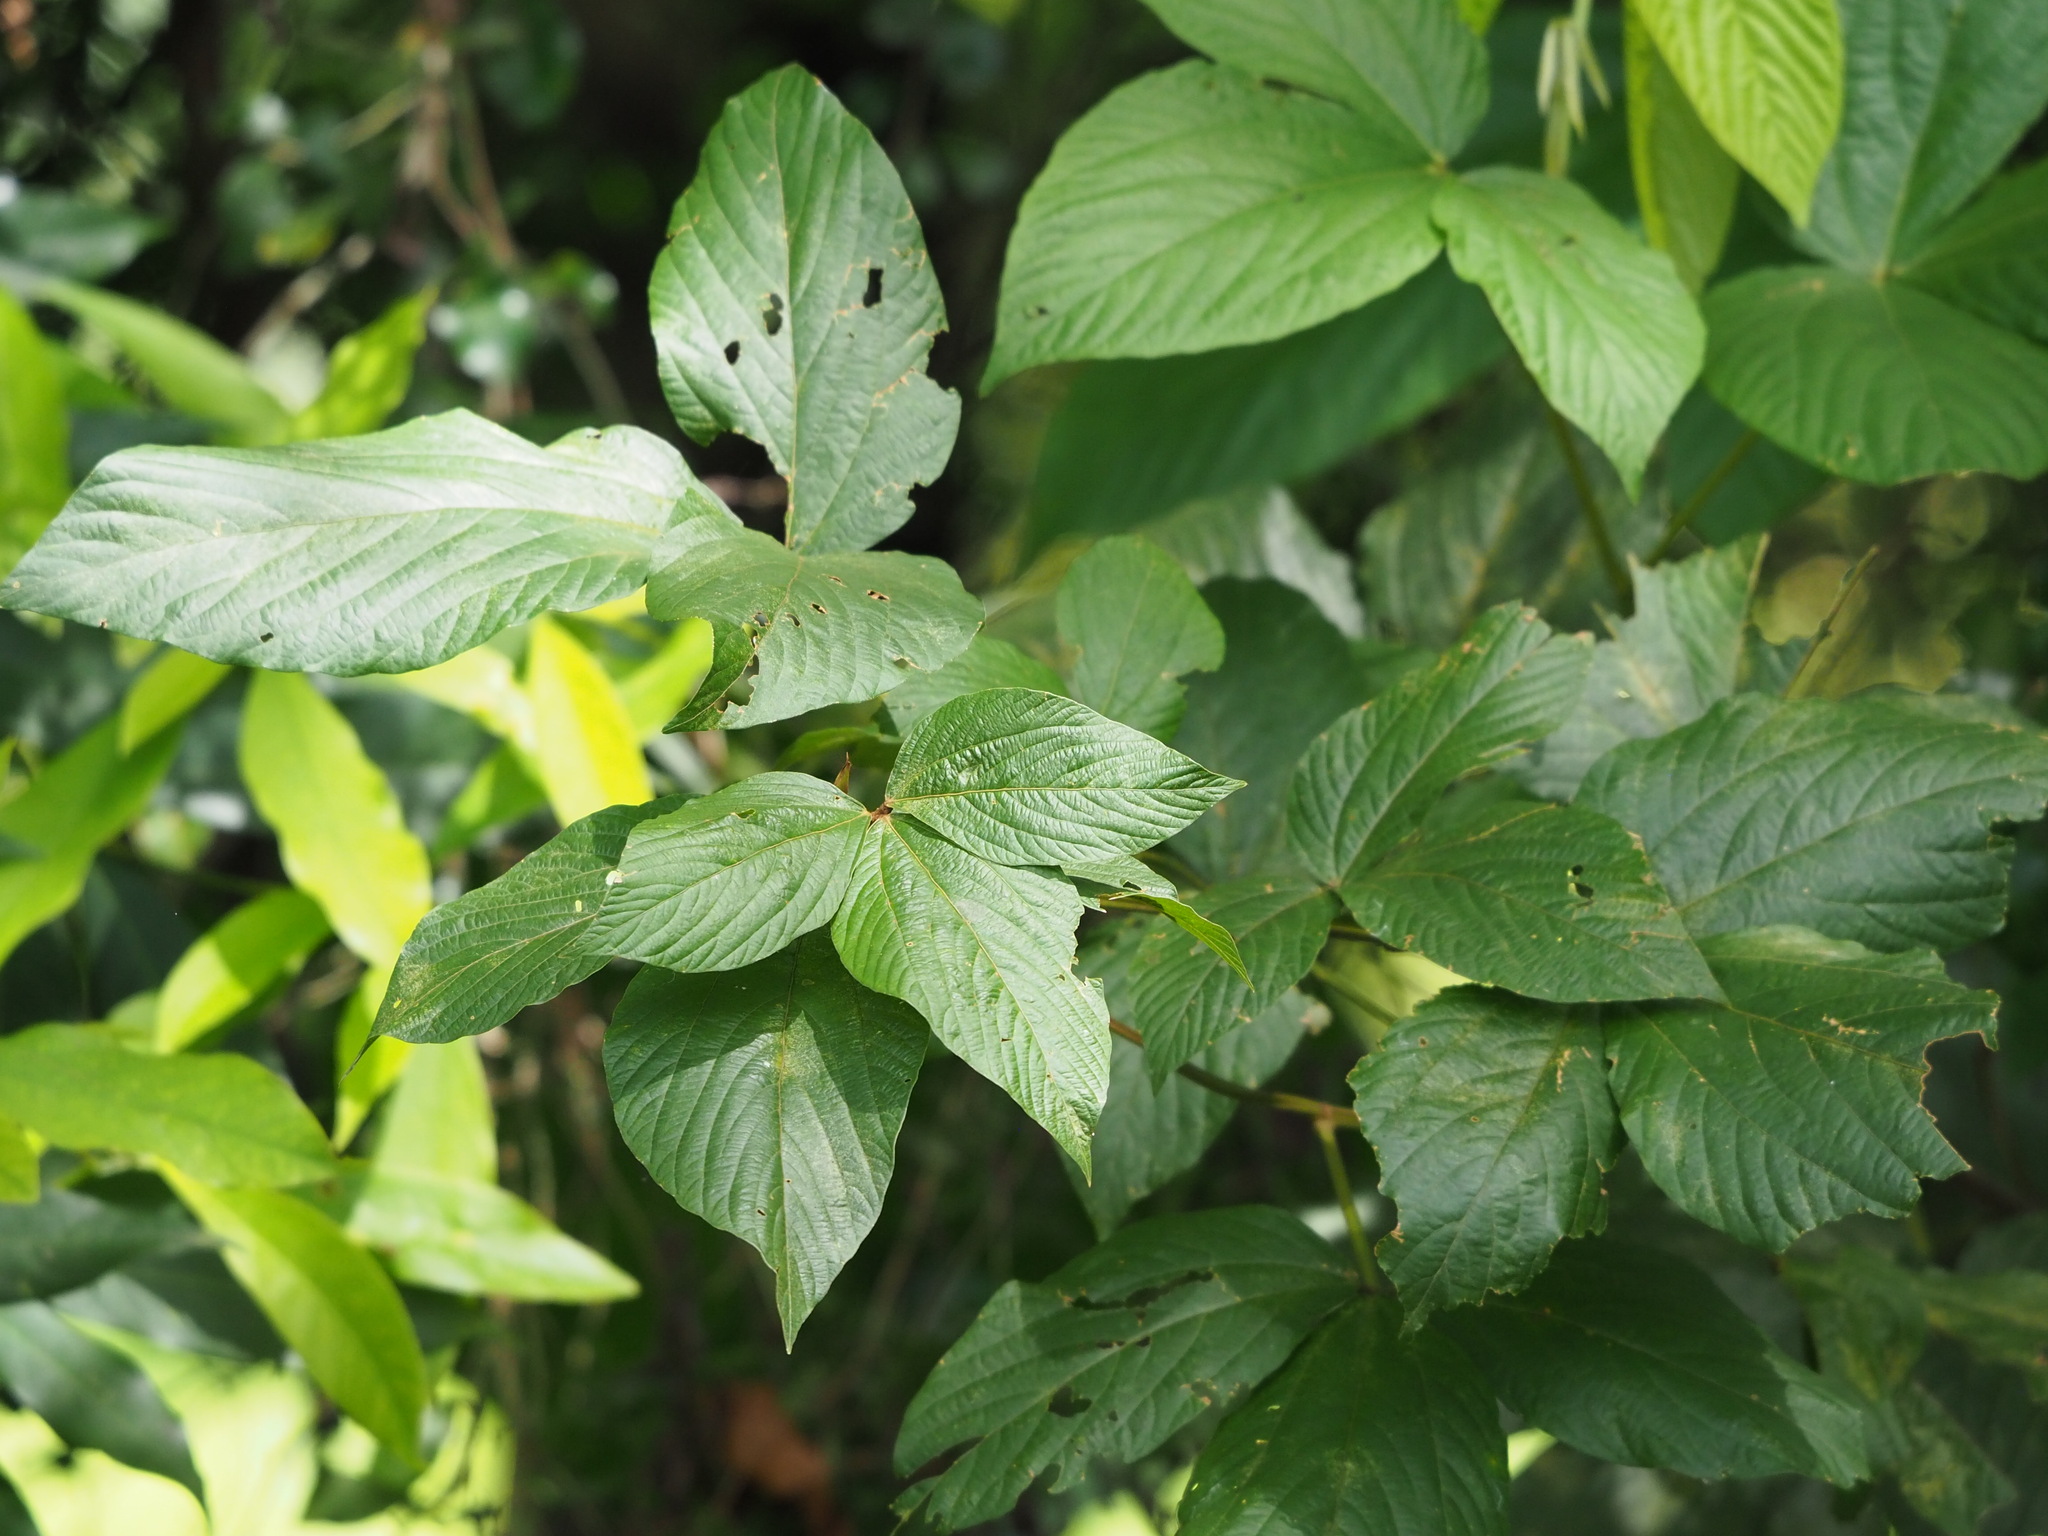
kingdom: Plantae
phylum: Tracheophyta
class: Magnoliopsida
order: Fabales
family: Fabaceae
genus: Flemingia
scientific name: Flemingia strobilifera
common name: Wild hops
